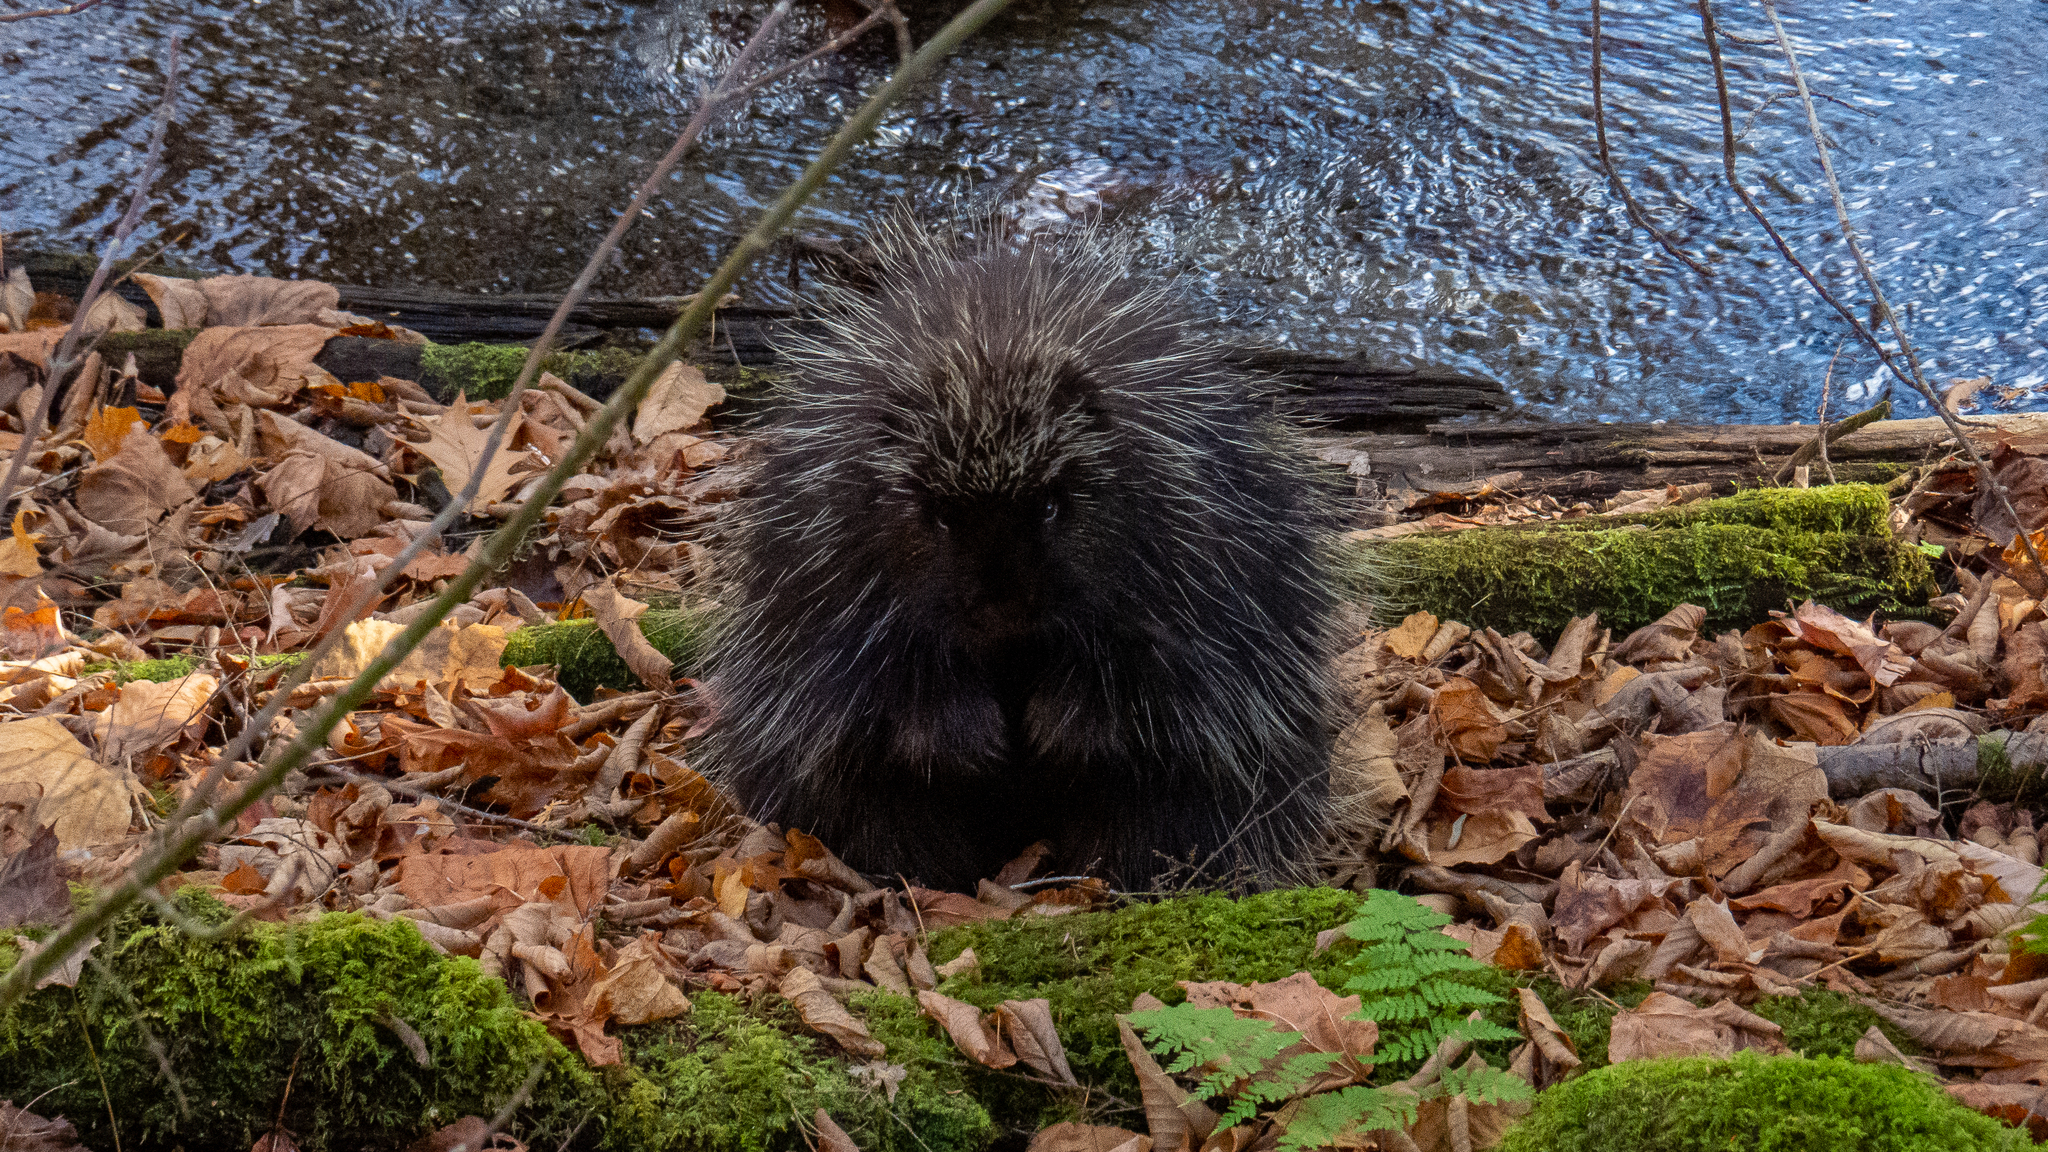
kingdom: Animalia
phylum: Chordata
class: Mammalia
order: Rodentia
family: Erethizontidae
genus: Erethizon
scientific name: Erethizon dorsatus
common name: North american porcupine
